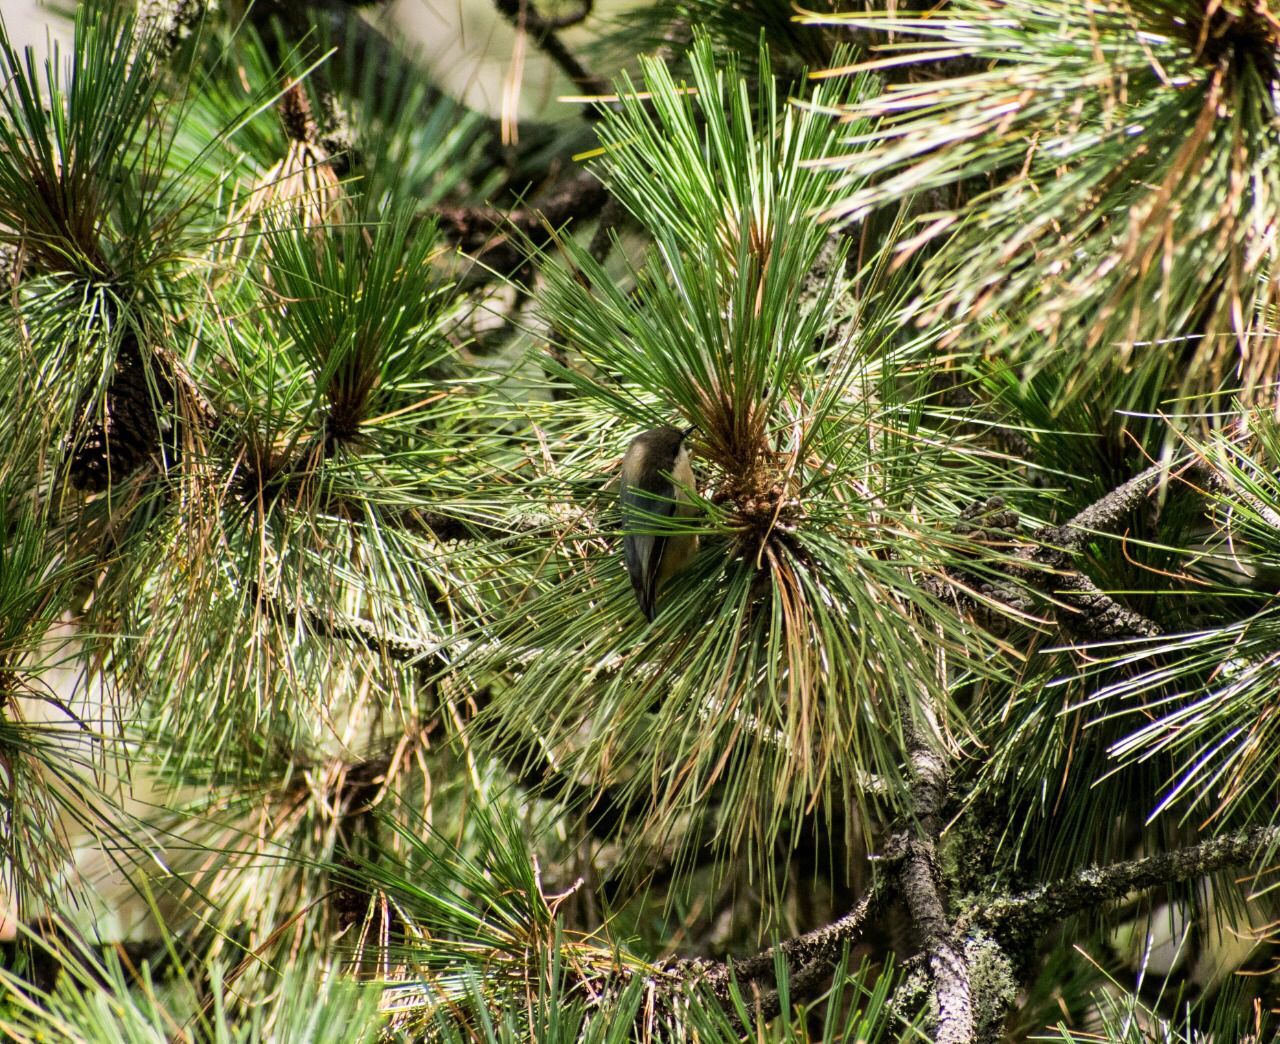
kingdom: Animalia
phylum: Chordata
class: Aves
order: Passeriformes
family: Sittidae
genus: Sitta
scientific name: Sitta pygmaea
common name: Pygmy nuthatch
